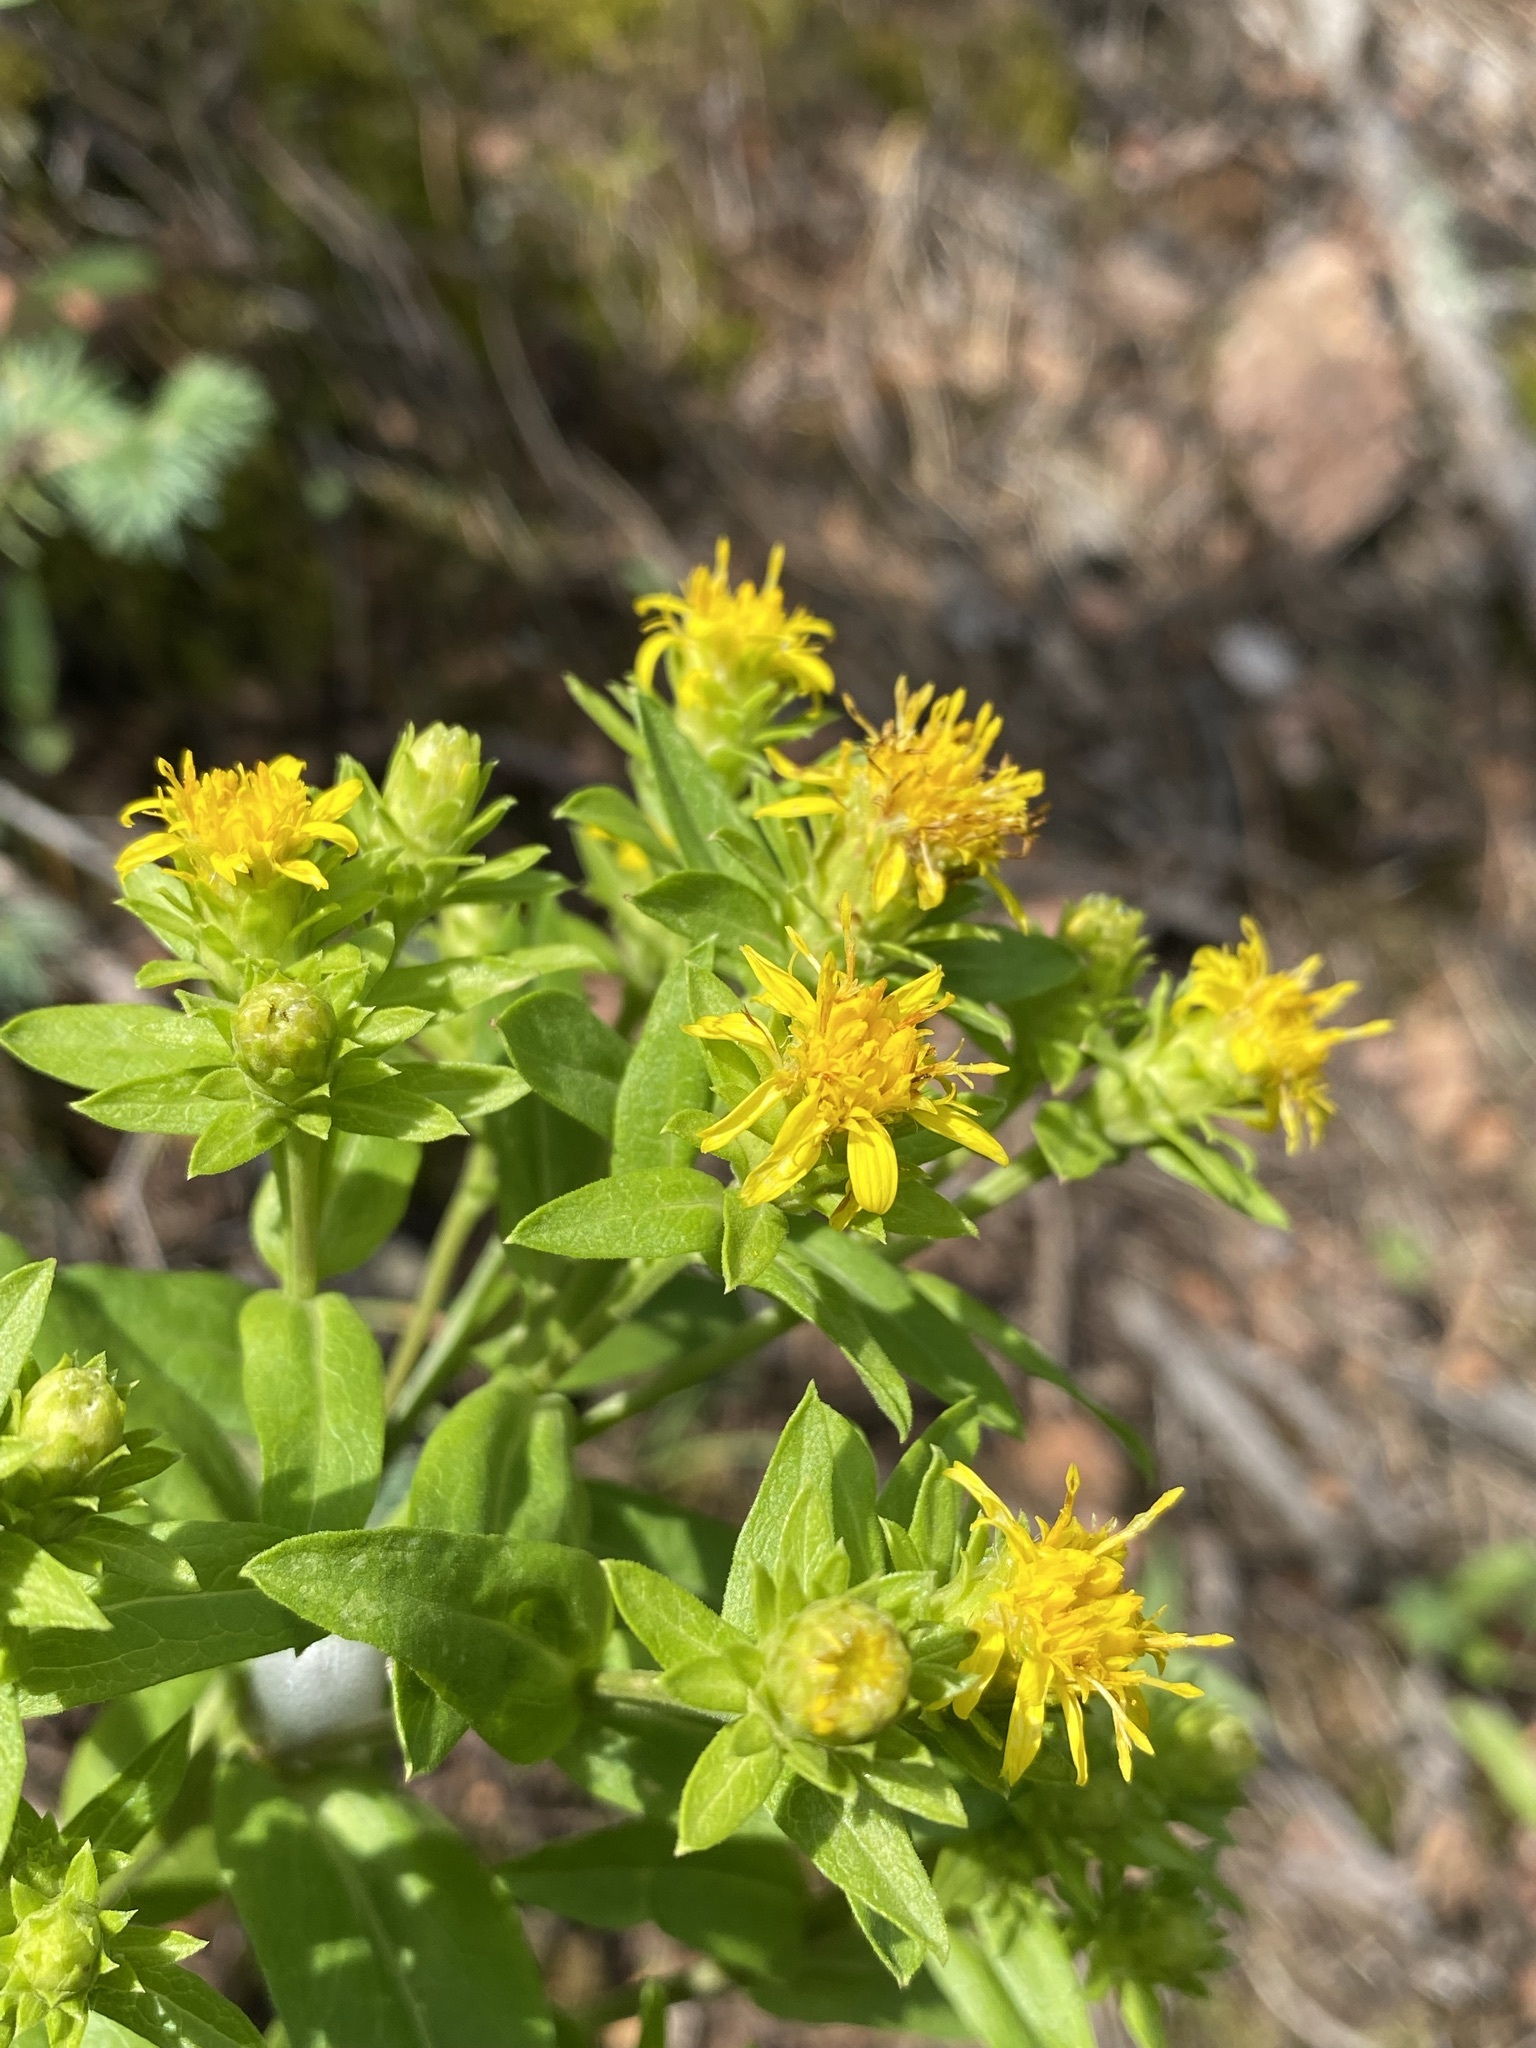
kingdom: Plantae
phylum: Tracheophyta
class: Magnoliopsida
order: Asterales
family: Asteraceae
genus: Oreochrysum
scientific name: Oreochrysum parryi
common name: Parry's goldenweed
